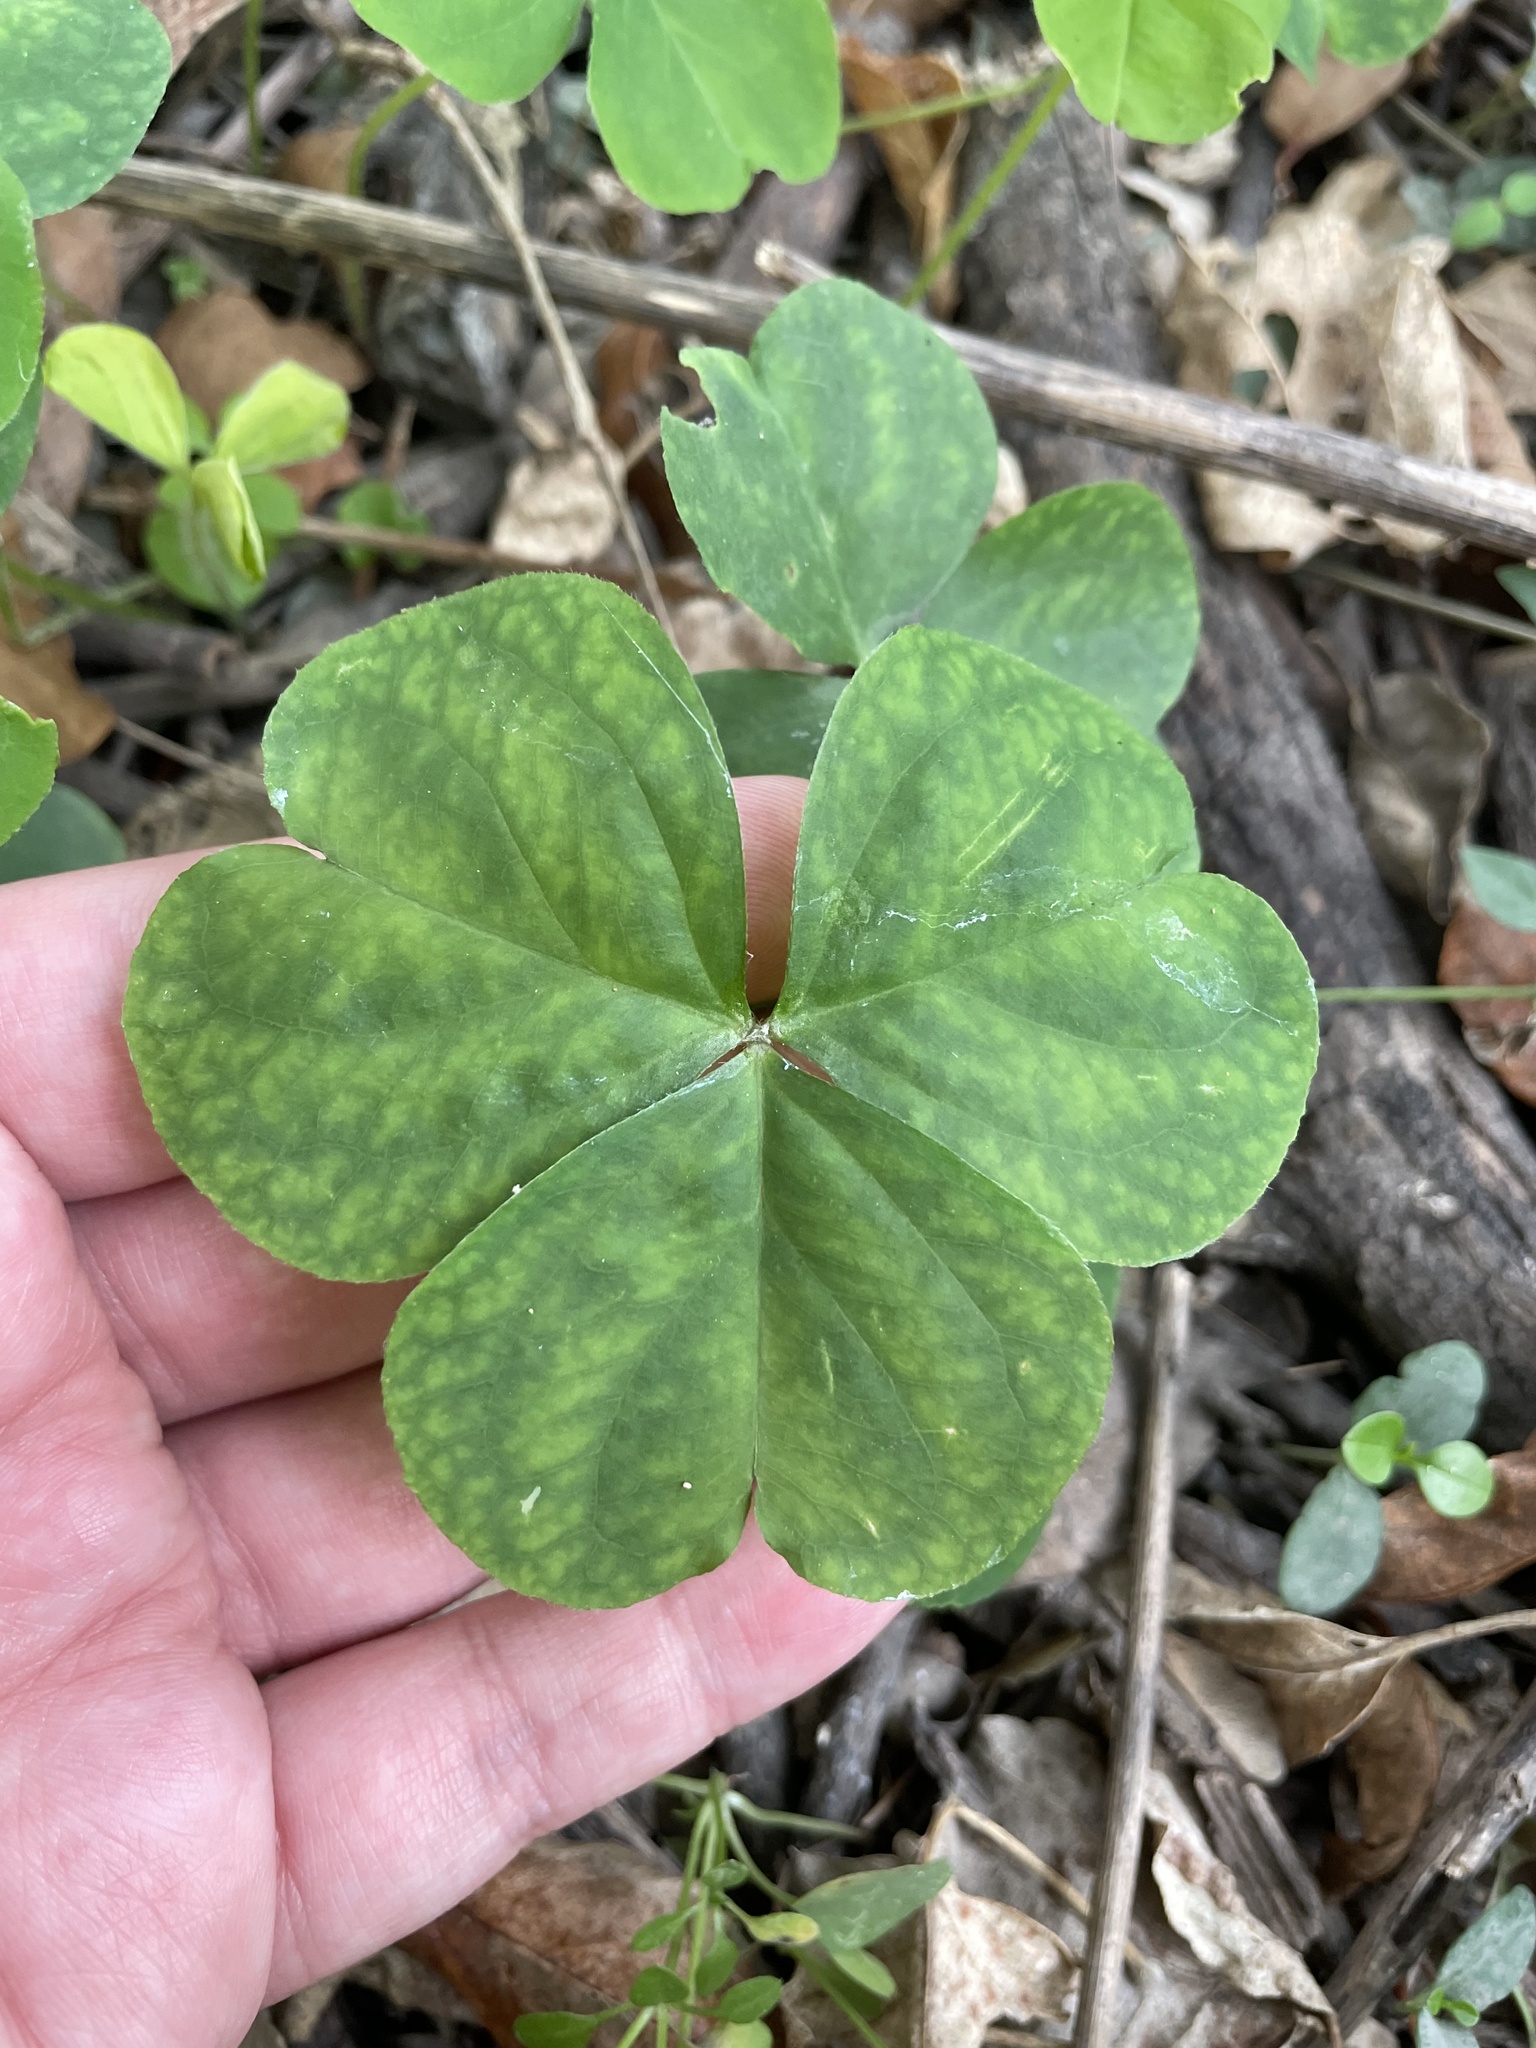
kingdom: Plantae
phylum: Tracheophyta
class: Magnoliopsida
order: Oxalidales
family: Oxalidaceae
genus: Oxalis
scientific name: Oxalis debilis
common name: Large-flowered pink-sorrel
